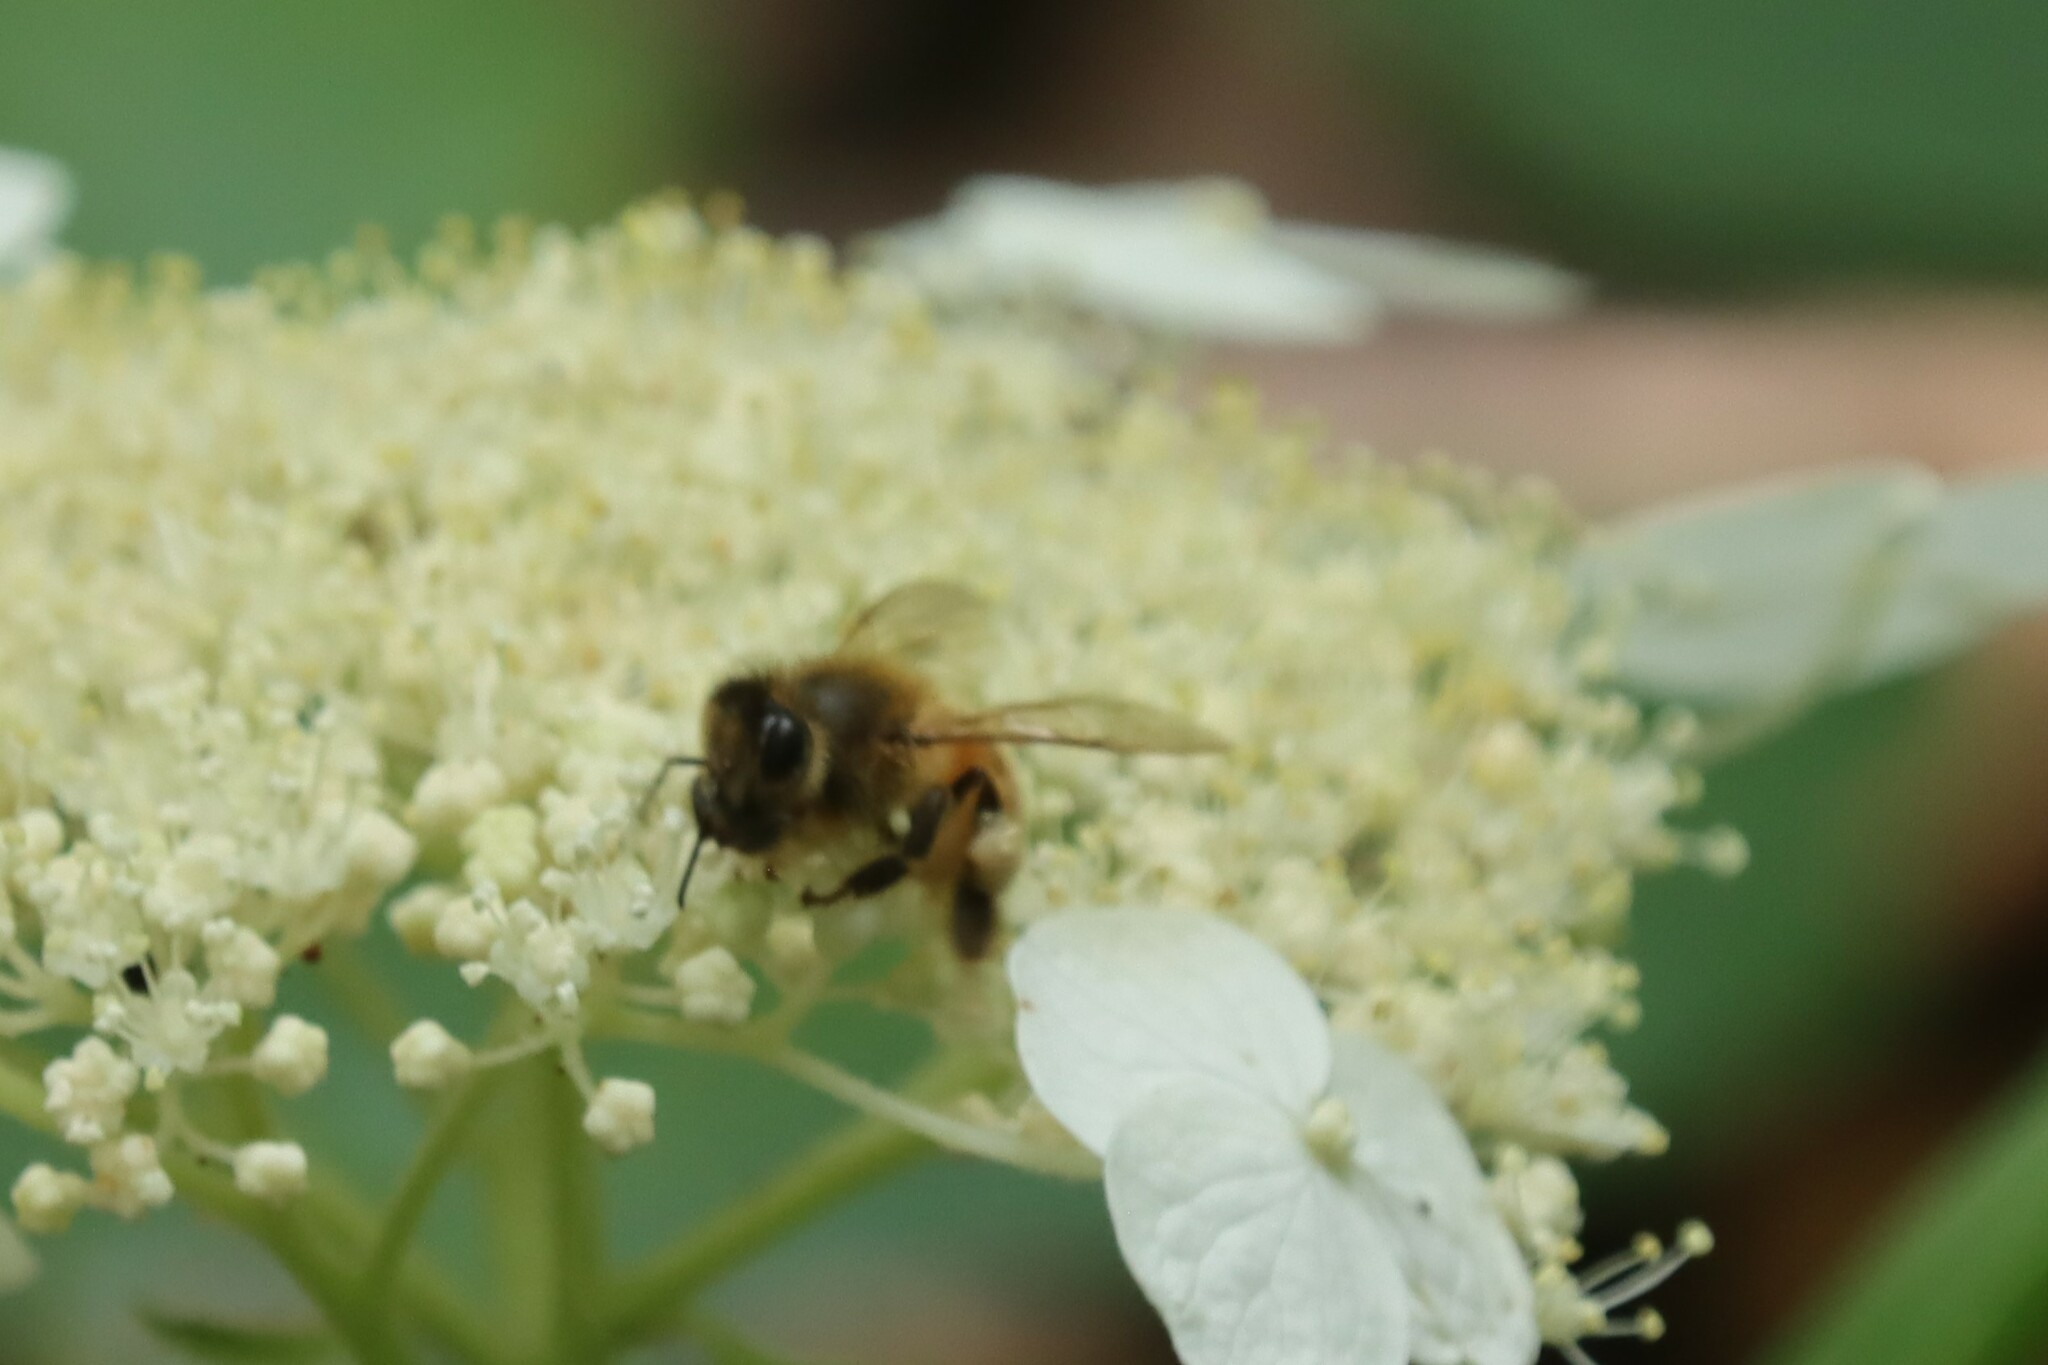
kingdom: Animalia
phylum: Arthropoda
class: Insecta
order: Hymenoptera
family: Apidae
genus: Apis
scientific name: Apis mellifera
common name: Honey bee
